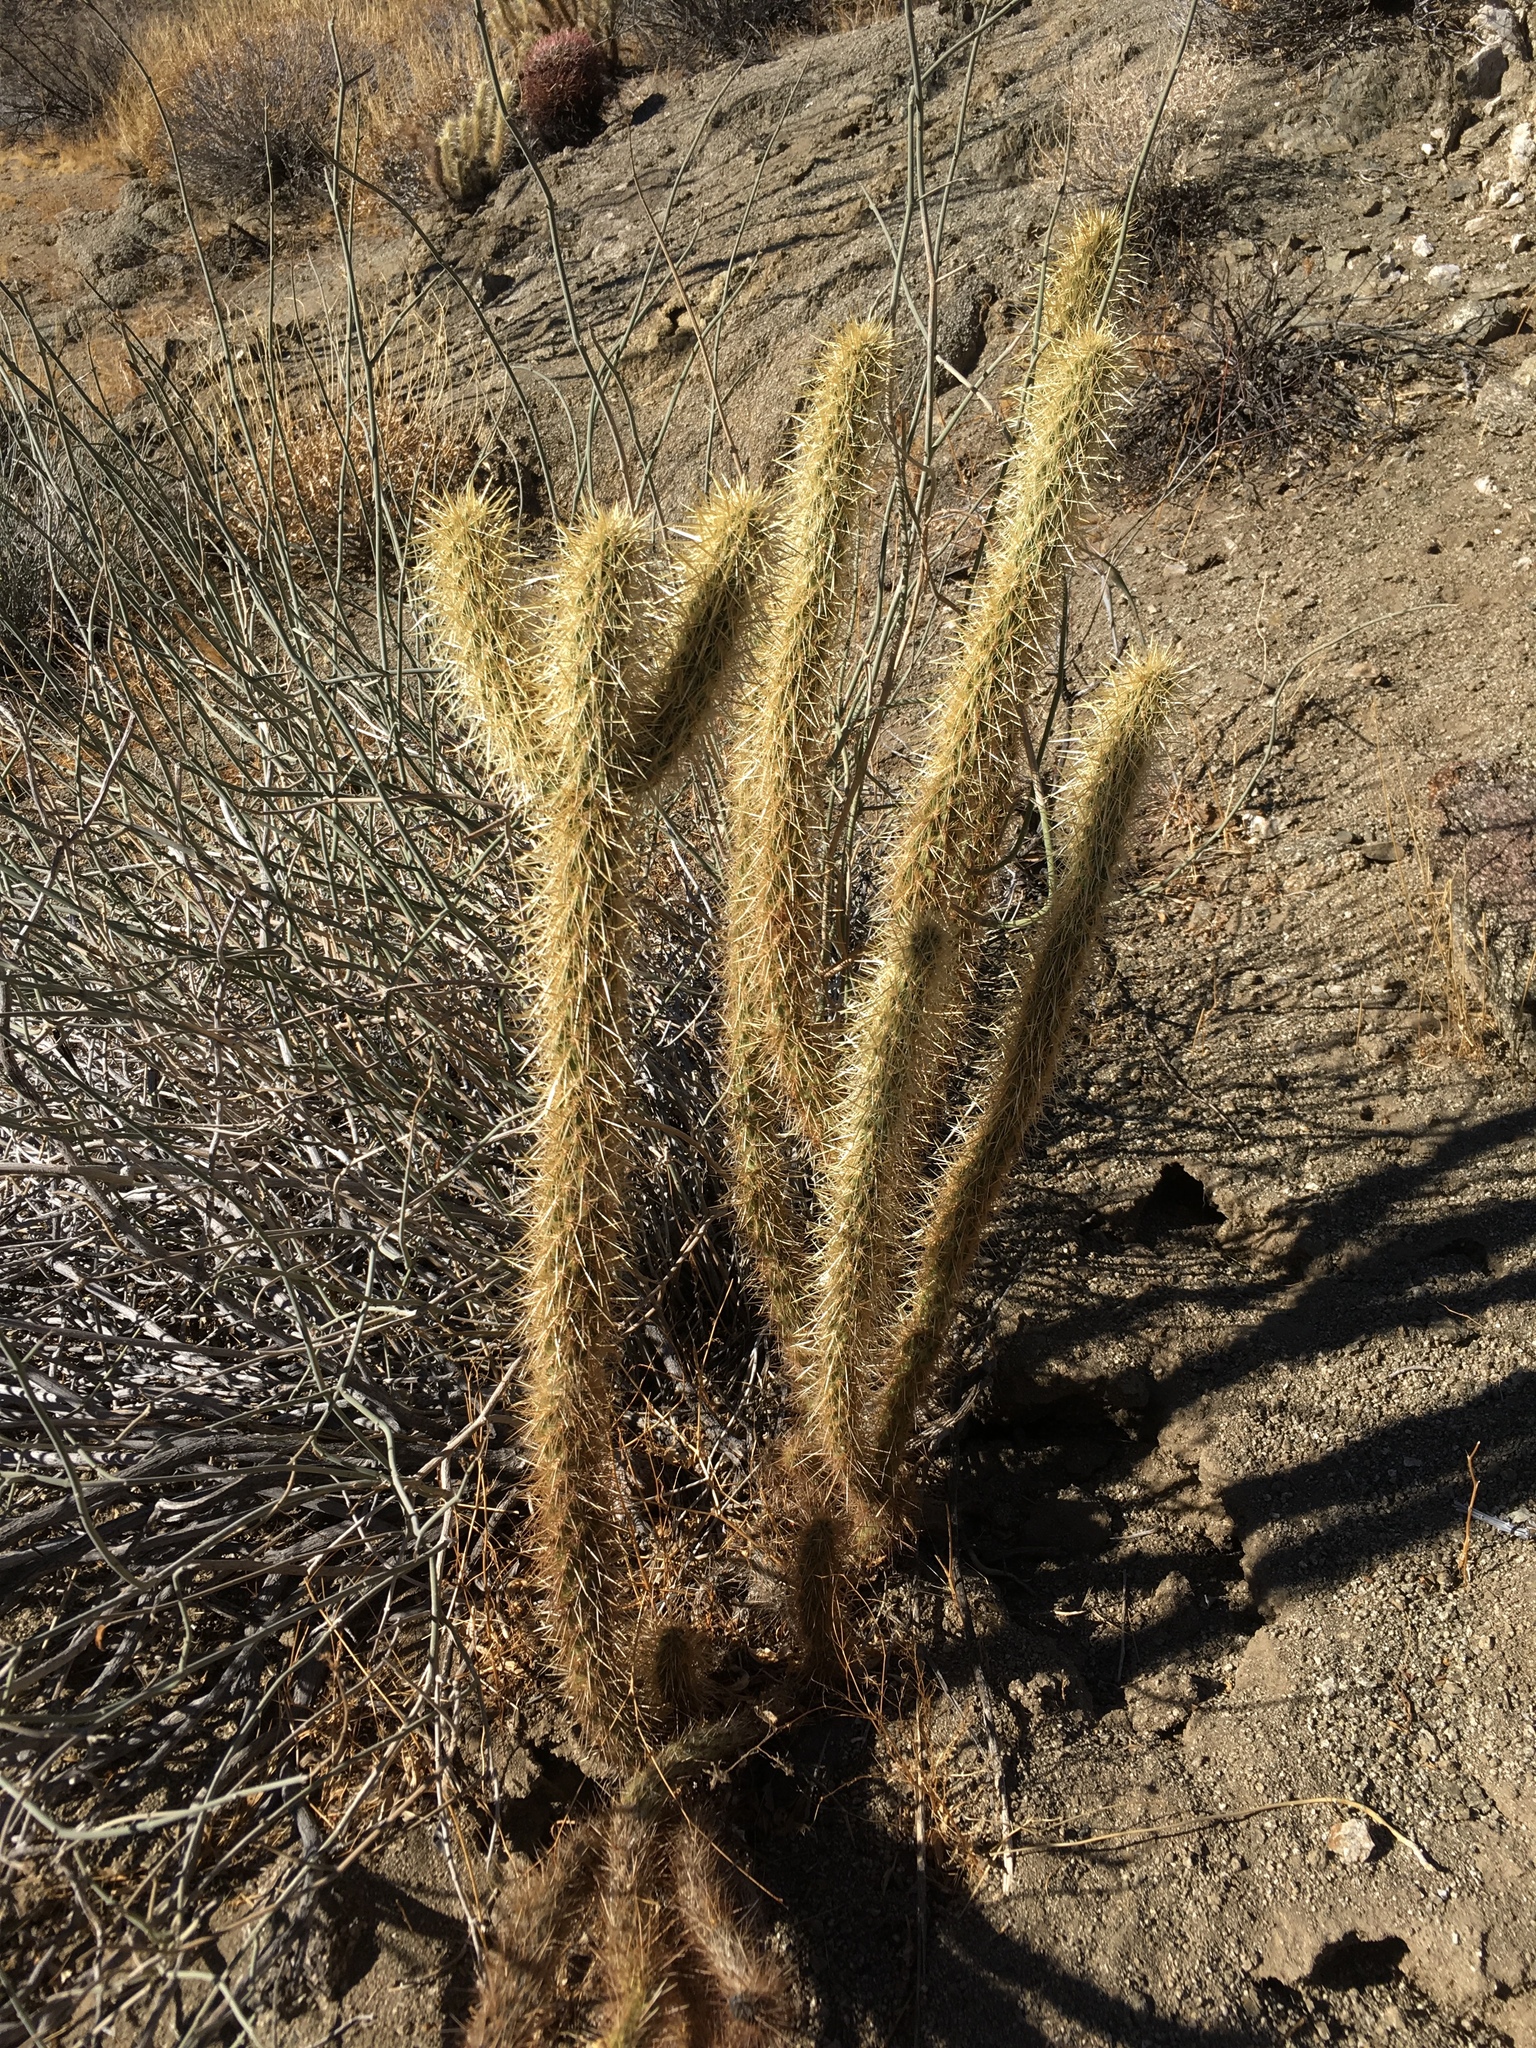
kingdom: Plantae
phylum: Tracheophyta
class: Magnoliopsida
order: Caryophyllales
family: Cactaceae
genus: Cylindropuntia
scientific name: Cylindropuntia ganderi
